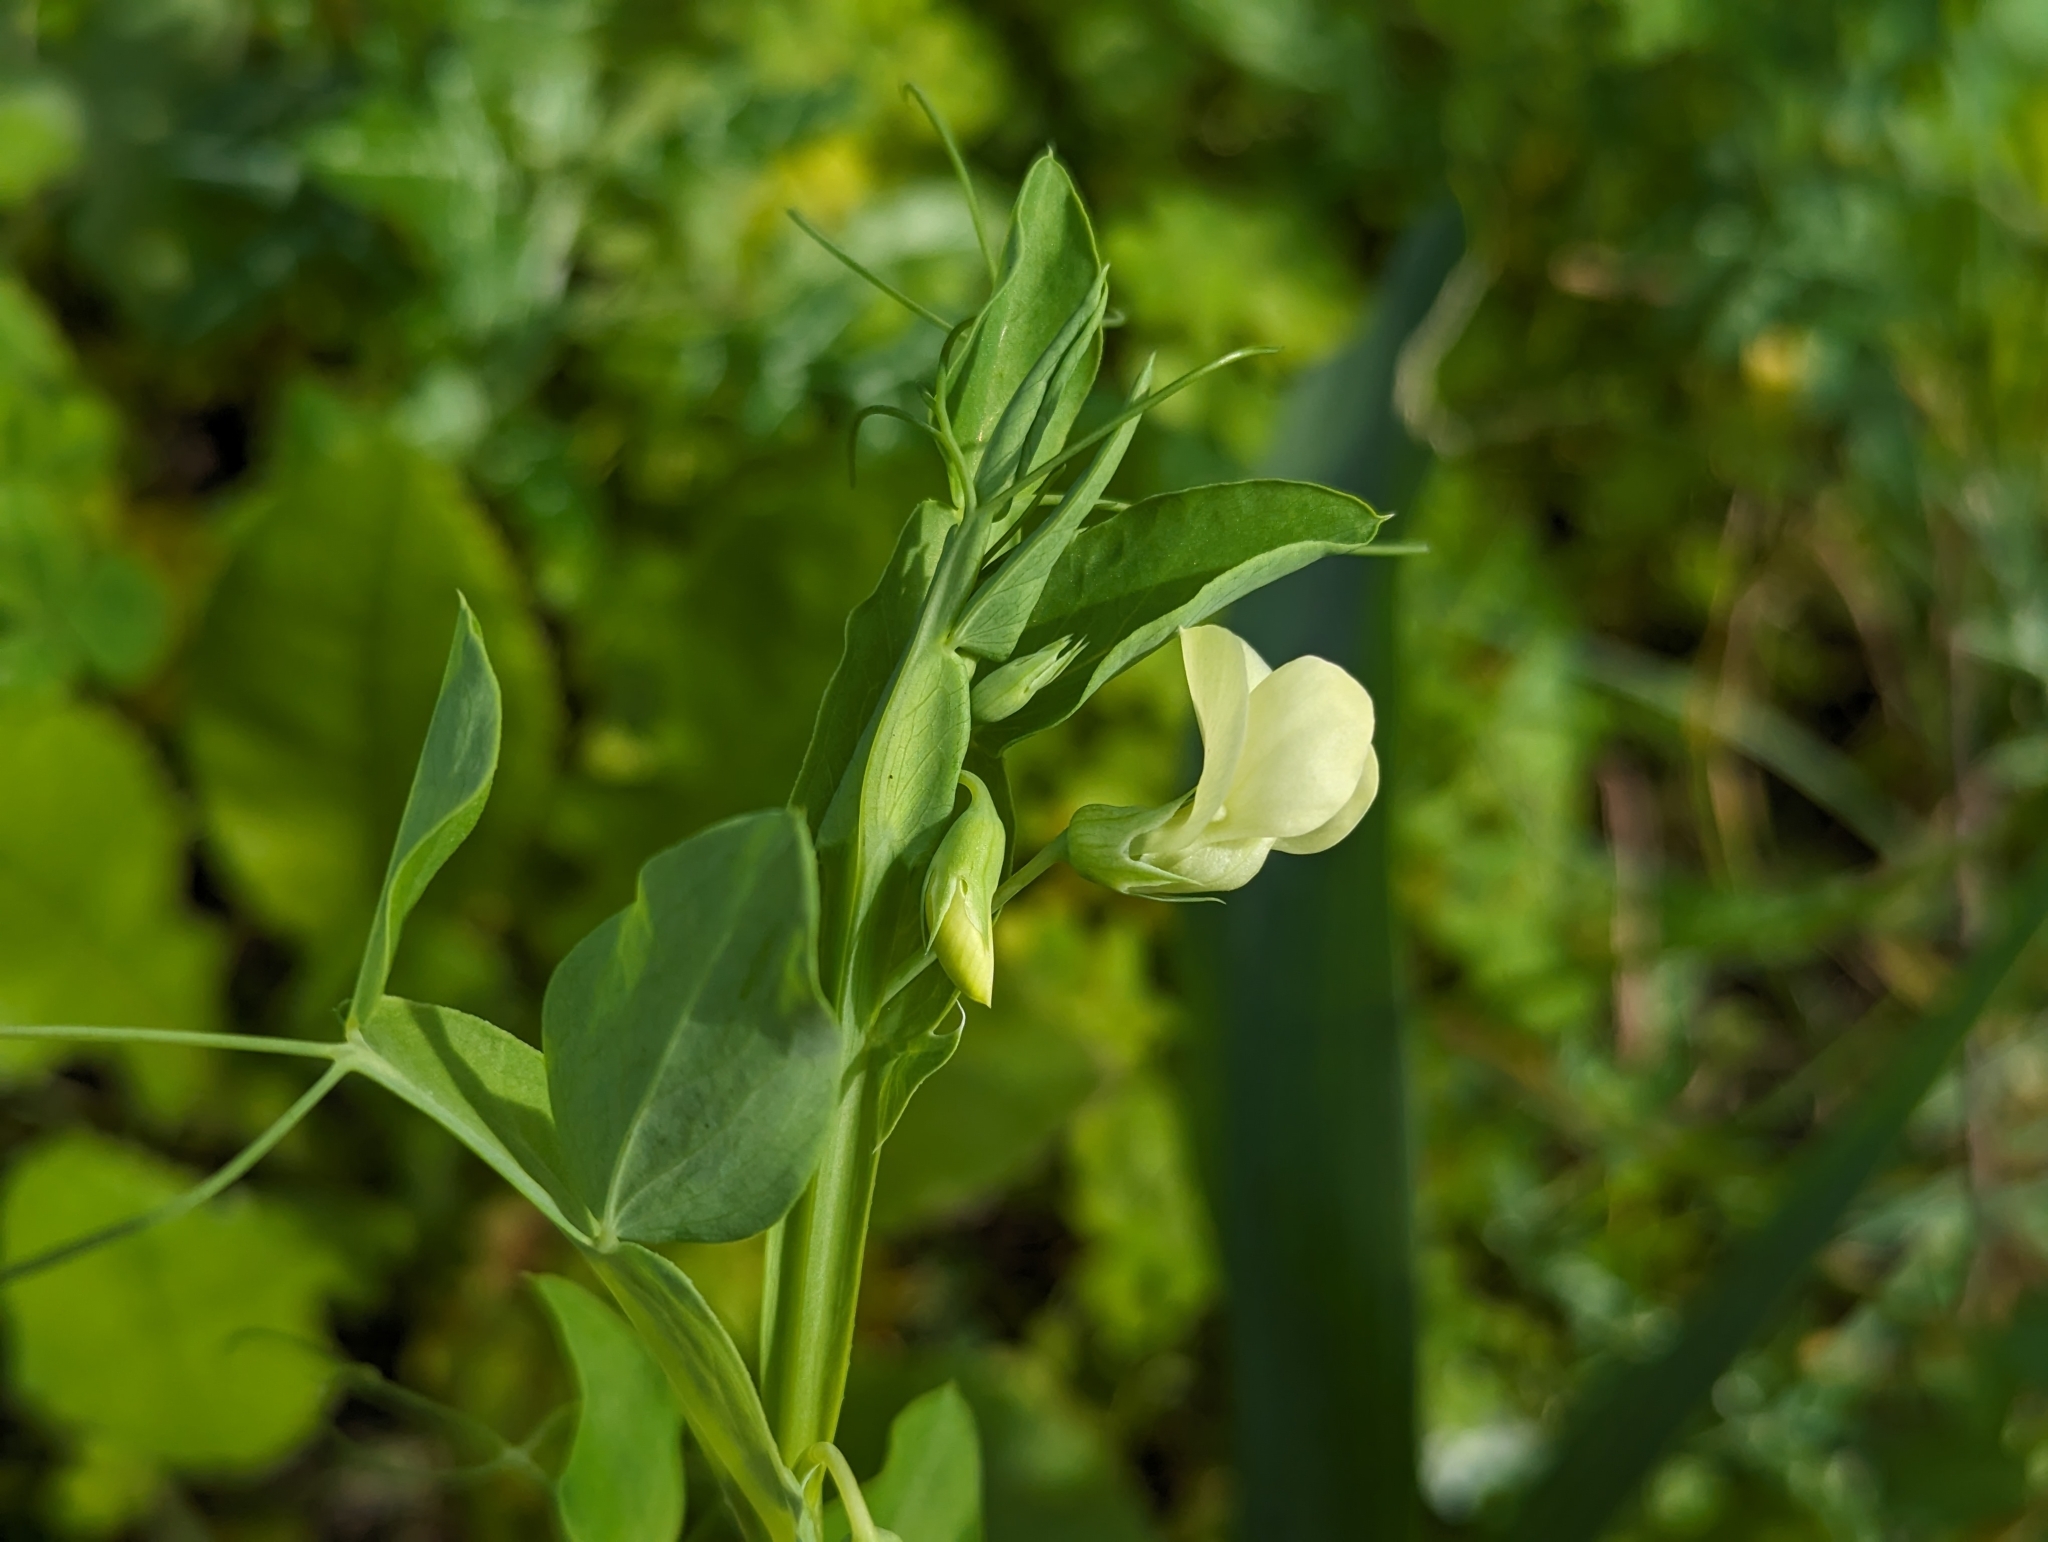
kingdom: Plantae
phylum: Tracheophyta
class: Magnoliopsida
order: Fabales
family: Fabaceae
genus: Lathyrus
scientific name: Lathyrus ochrus
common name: Winged vetchling
